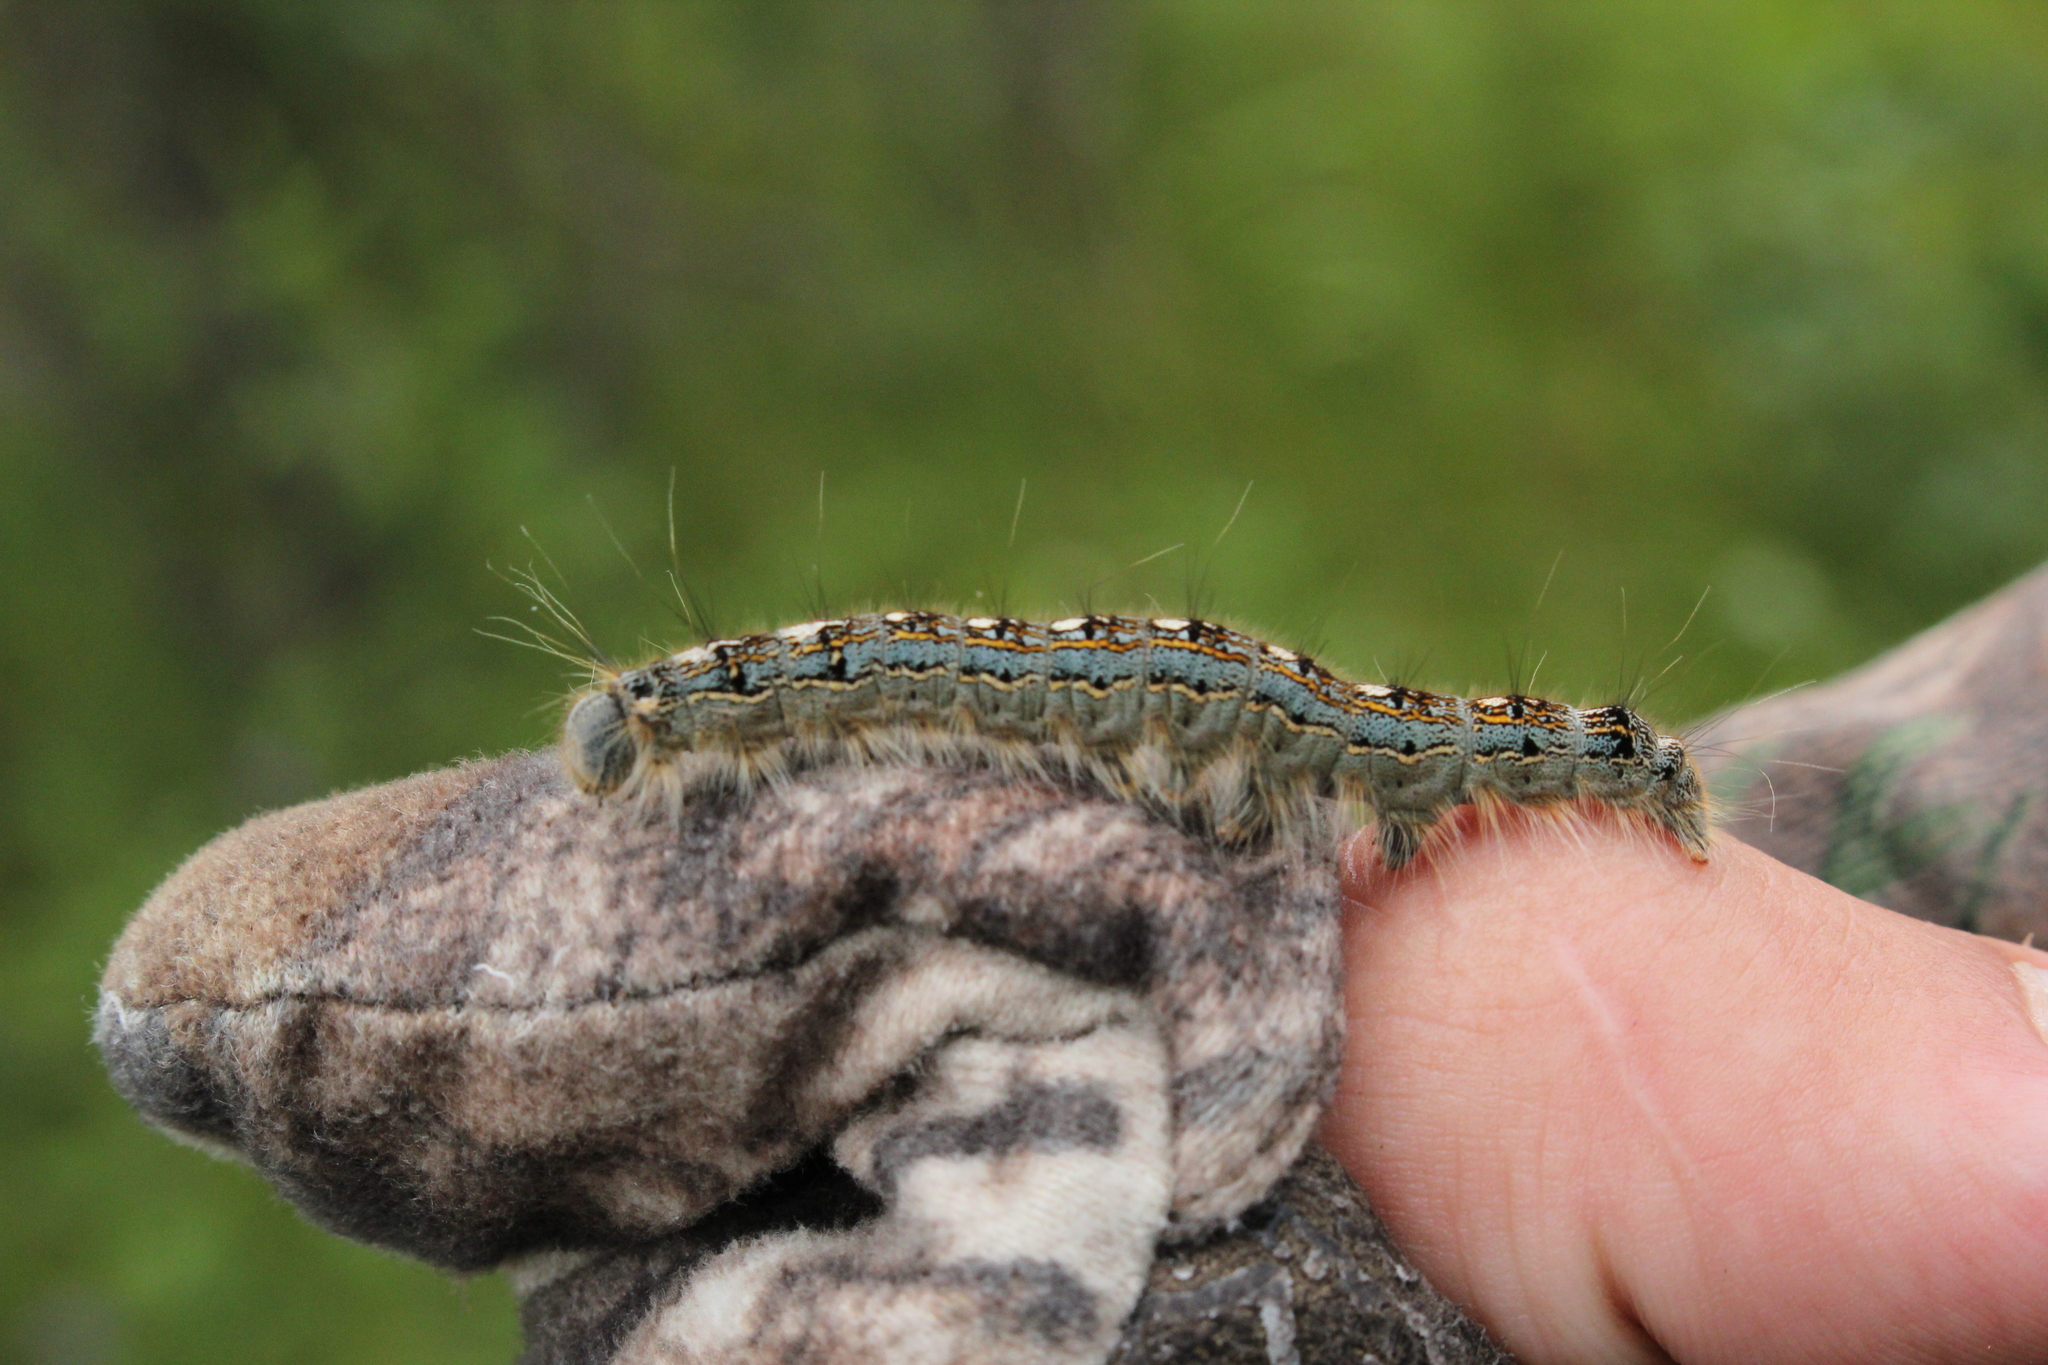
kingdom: Animalia
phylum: Arthropoda
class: Insecta
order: Lepidoptera
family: Lasiocampidae
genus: Malacosoma
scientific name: Malacosoma disstria
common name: Forest tent caterpillar
